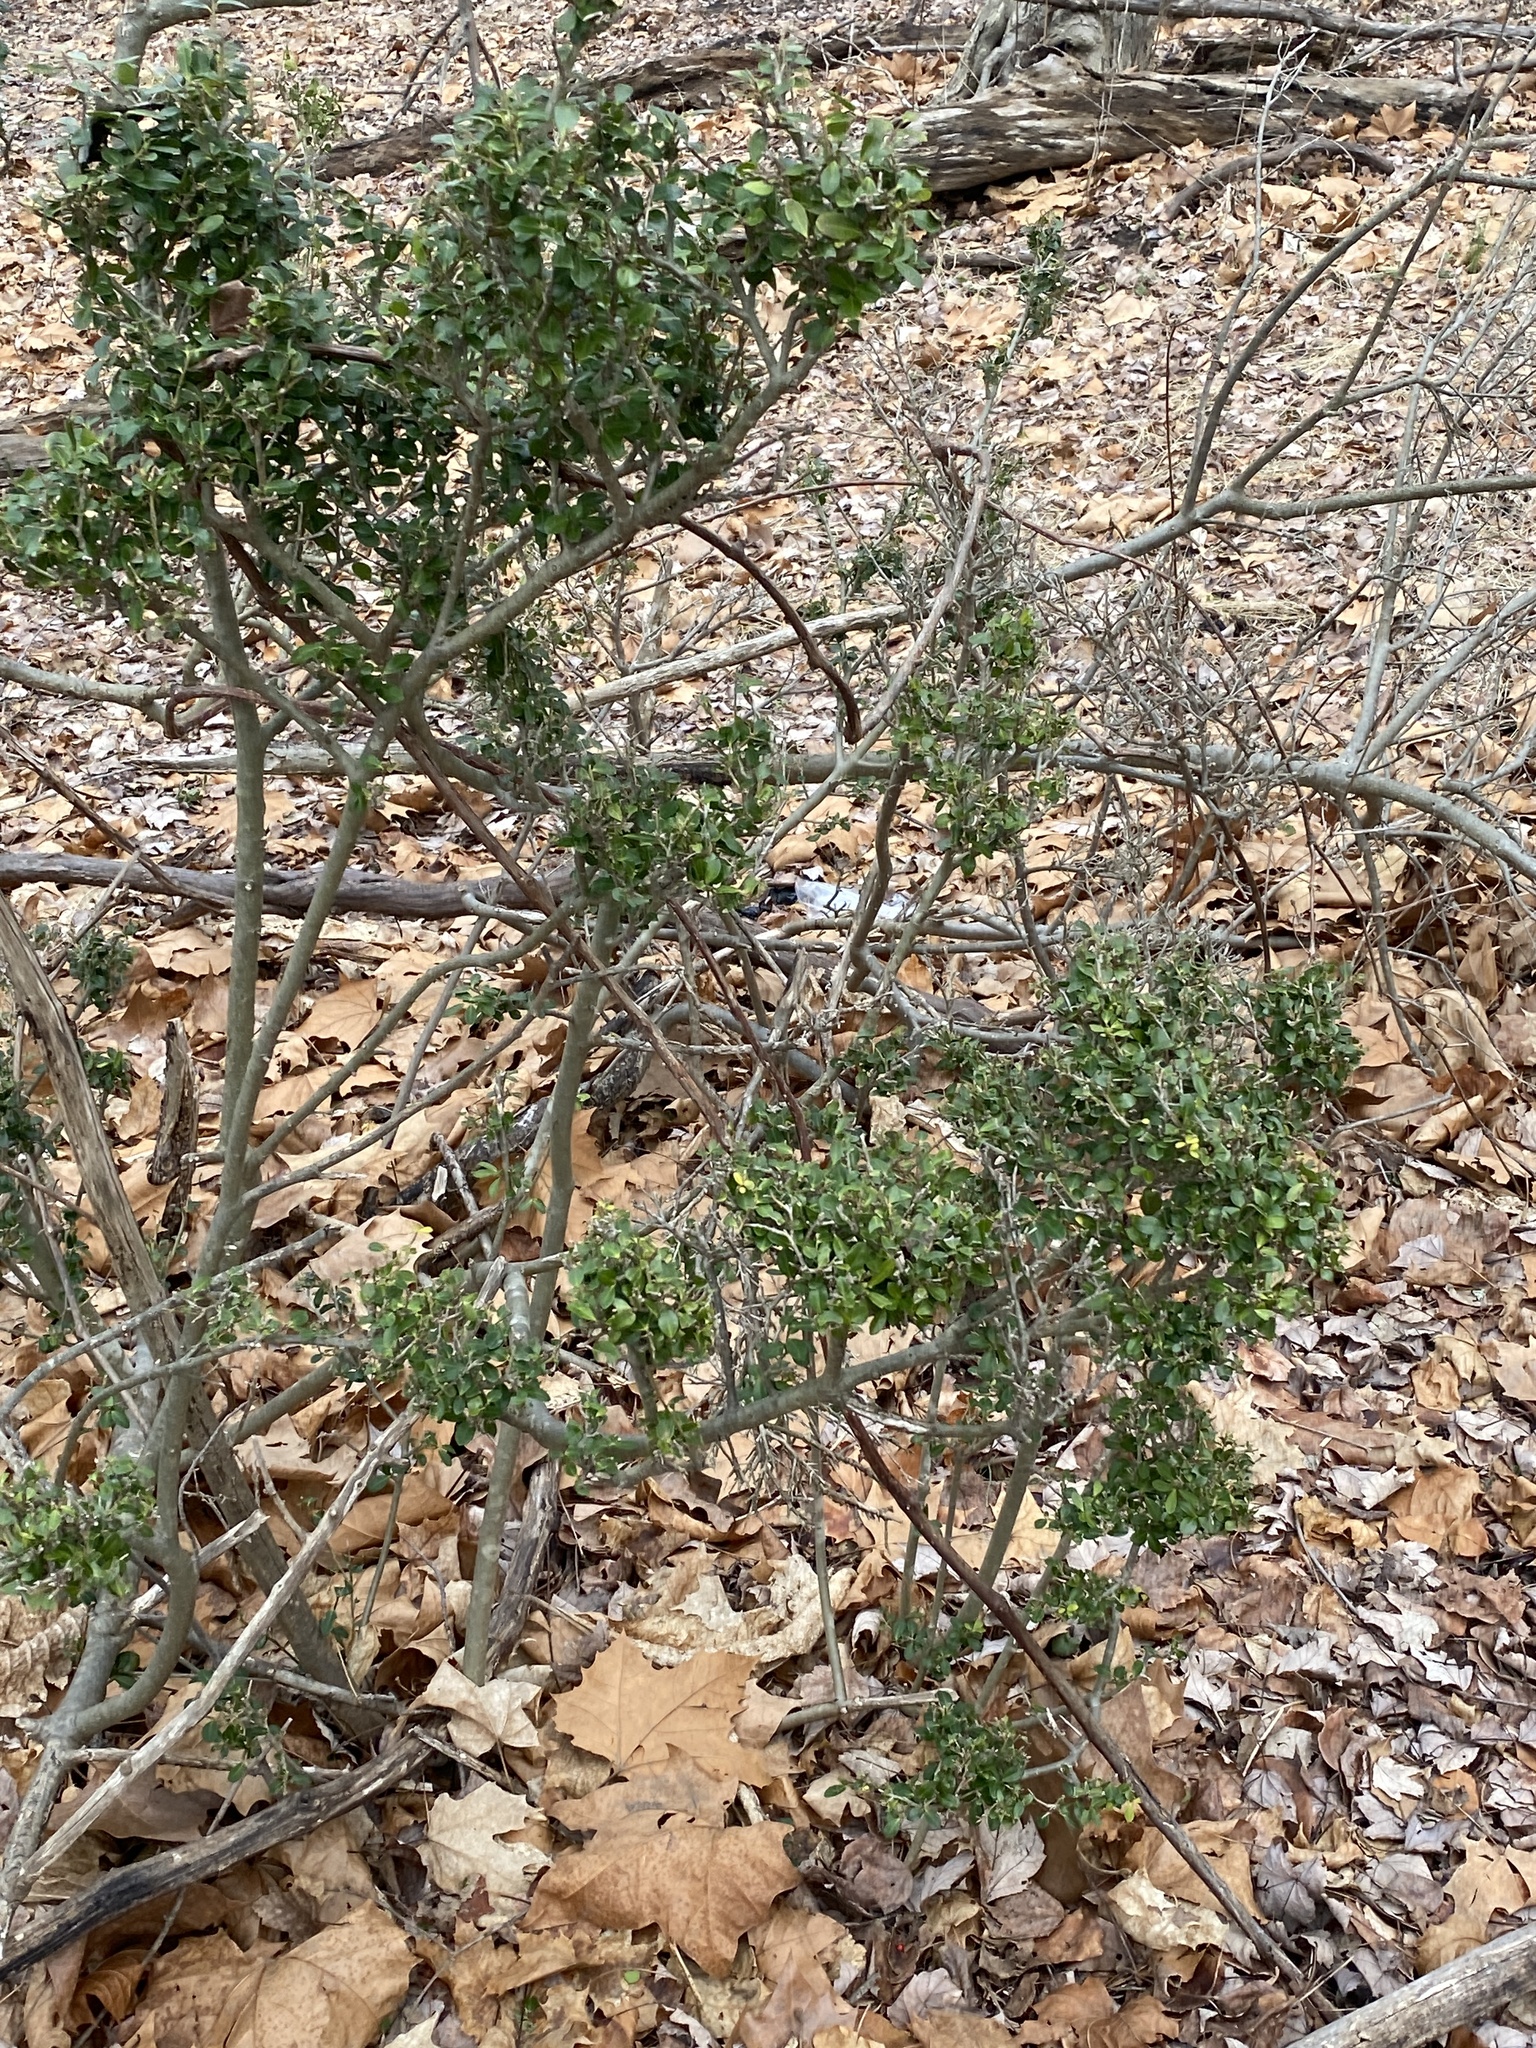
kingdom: Plantae
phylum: Tracheophyta
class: Magnoliopsida
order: Aquifoliales
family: Aquifoliaceae
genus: Ilex
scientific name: Ilex crenata
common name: Japanese holly
